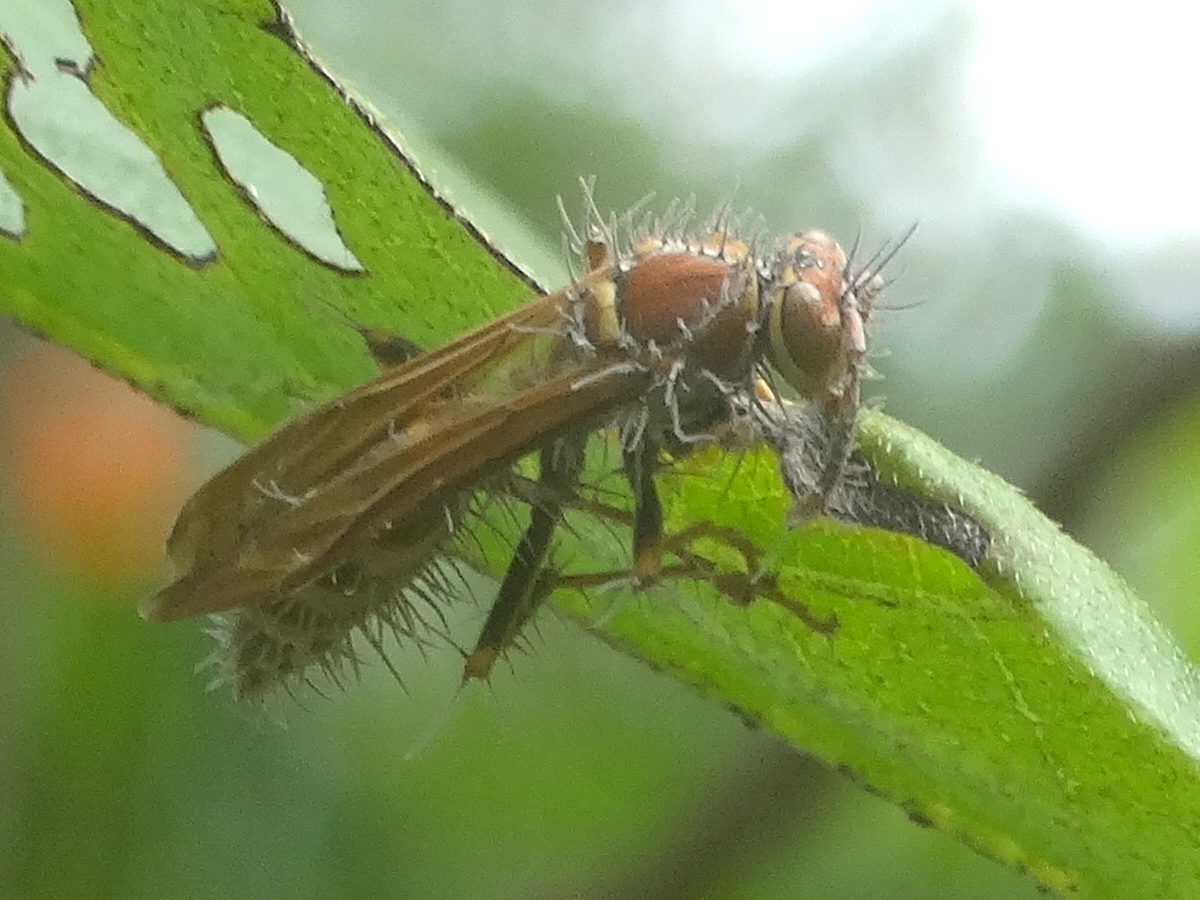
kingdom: Animalia
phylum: Arthropoda
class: Insecta
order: Hymenoptera
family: Eumenidae
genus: Polistes
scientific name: Polistes instabilis
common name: Unstable paper wasp
